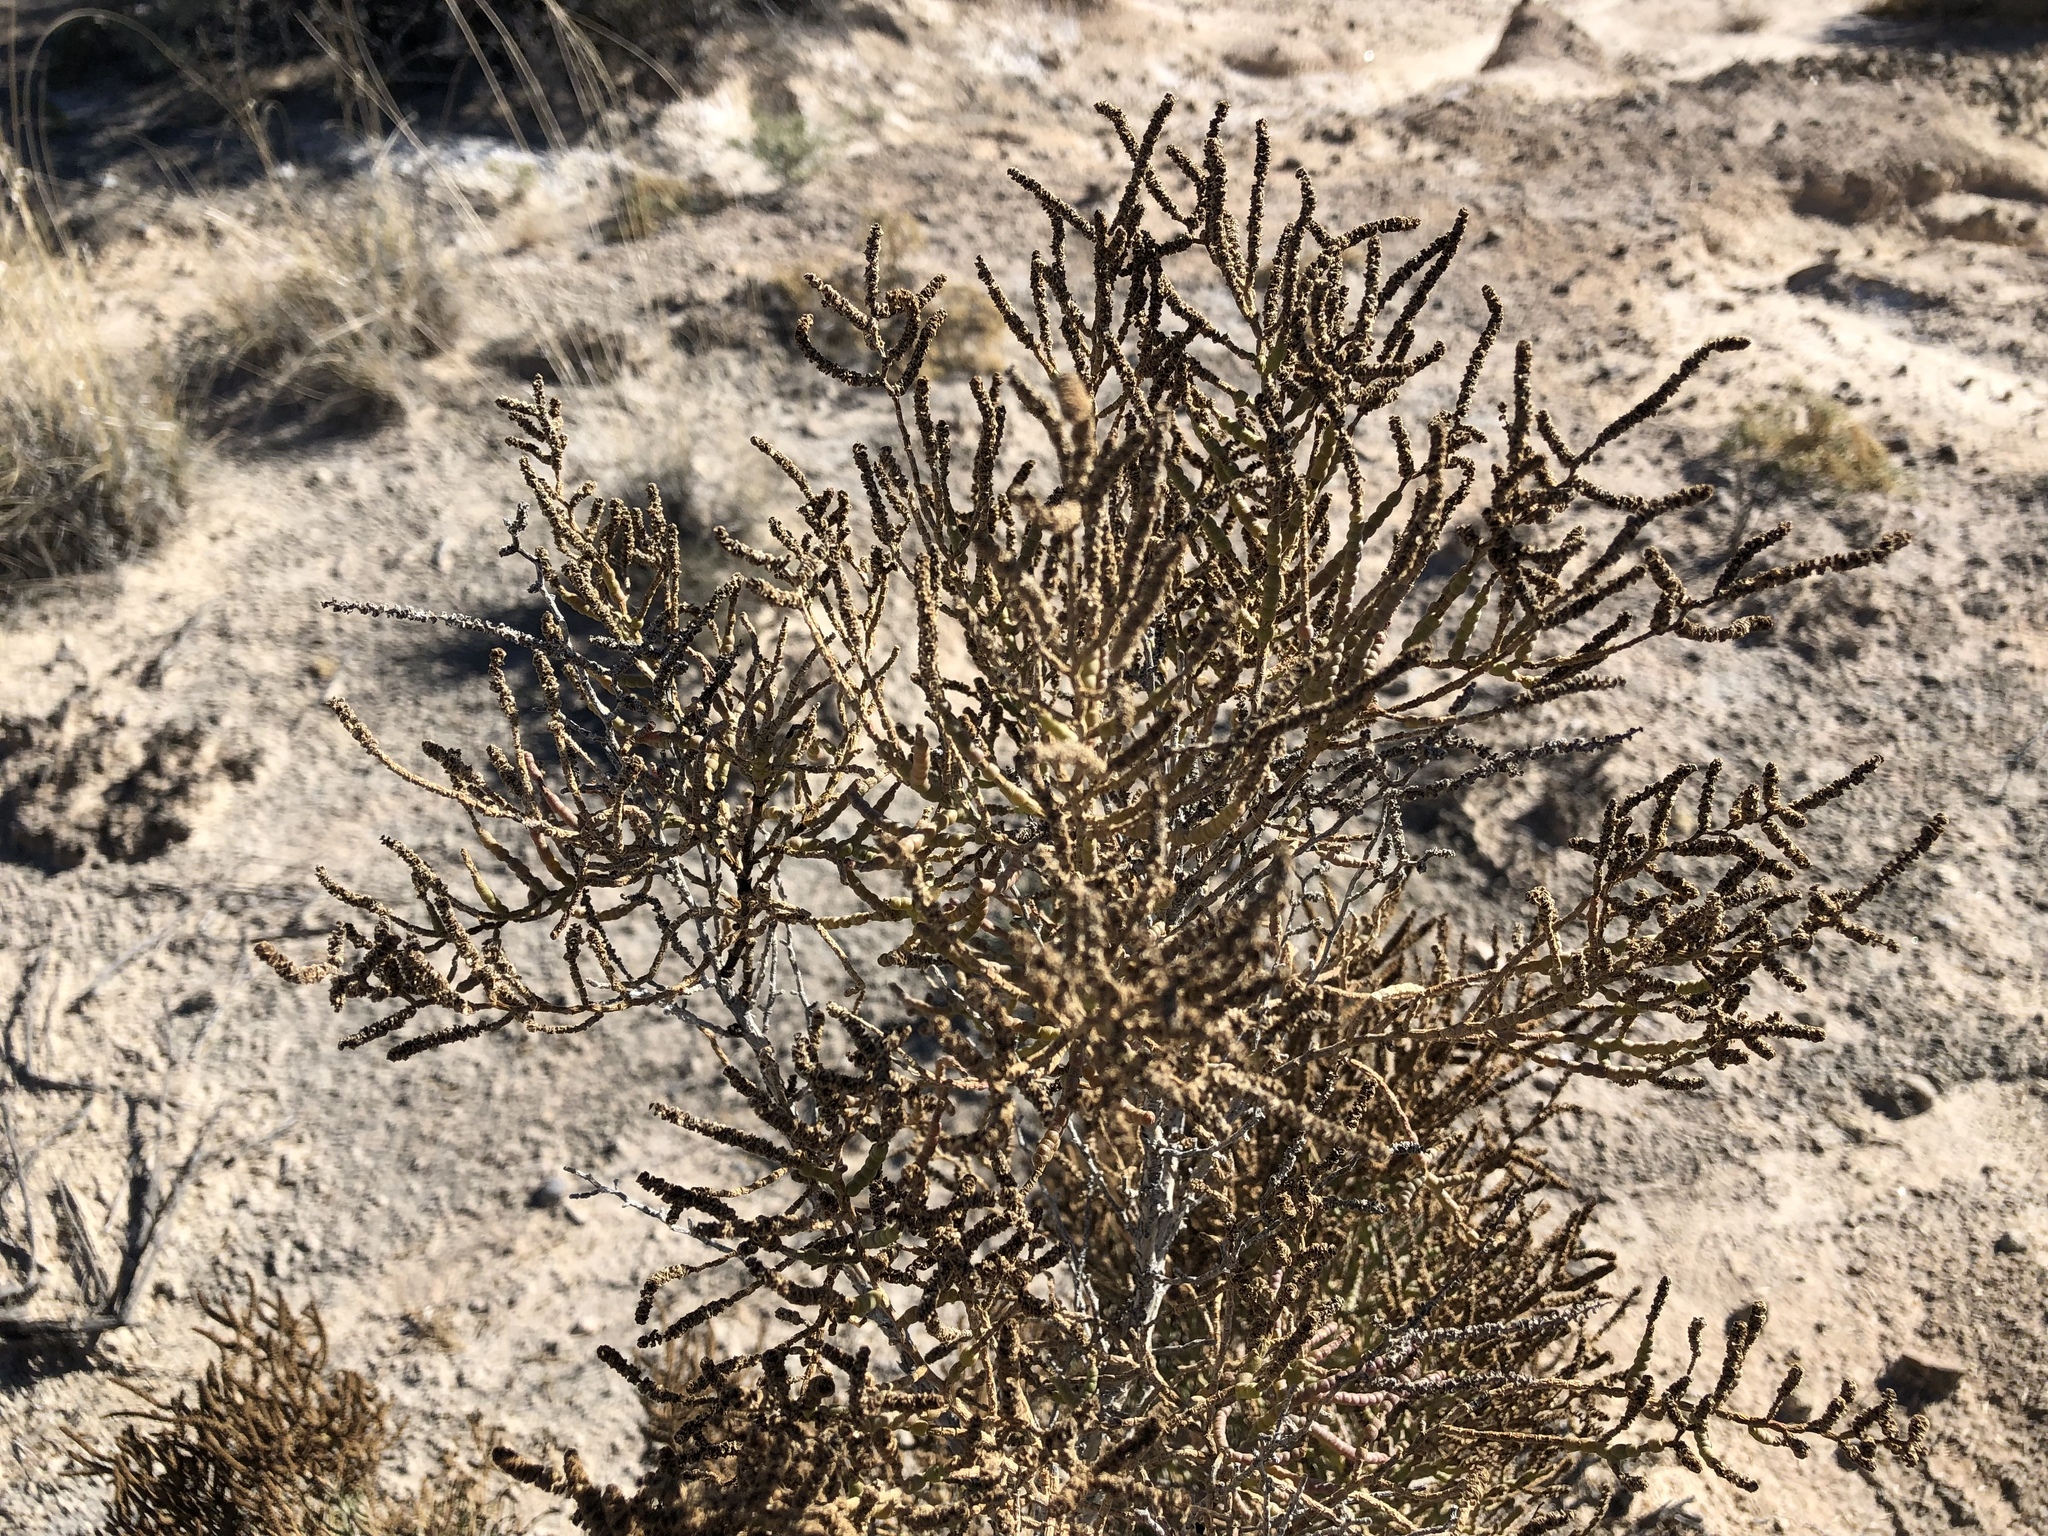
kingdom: Plantae
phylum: Tracheophyta
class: Magnoliopsida
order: Caryophyllales
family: Amaranthaceae
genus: Allenrolfea
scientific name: Allenrolfea occidentalis
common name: Iodine-bush
